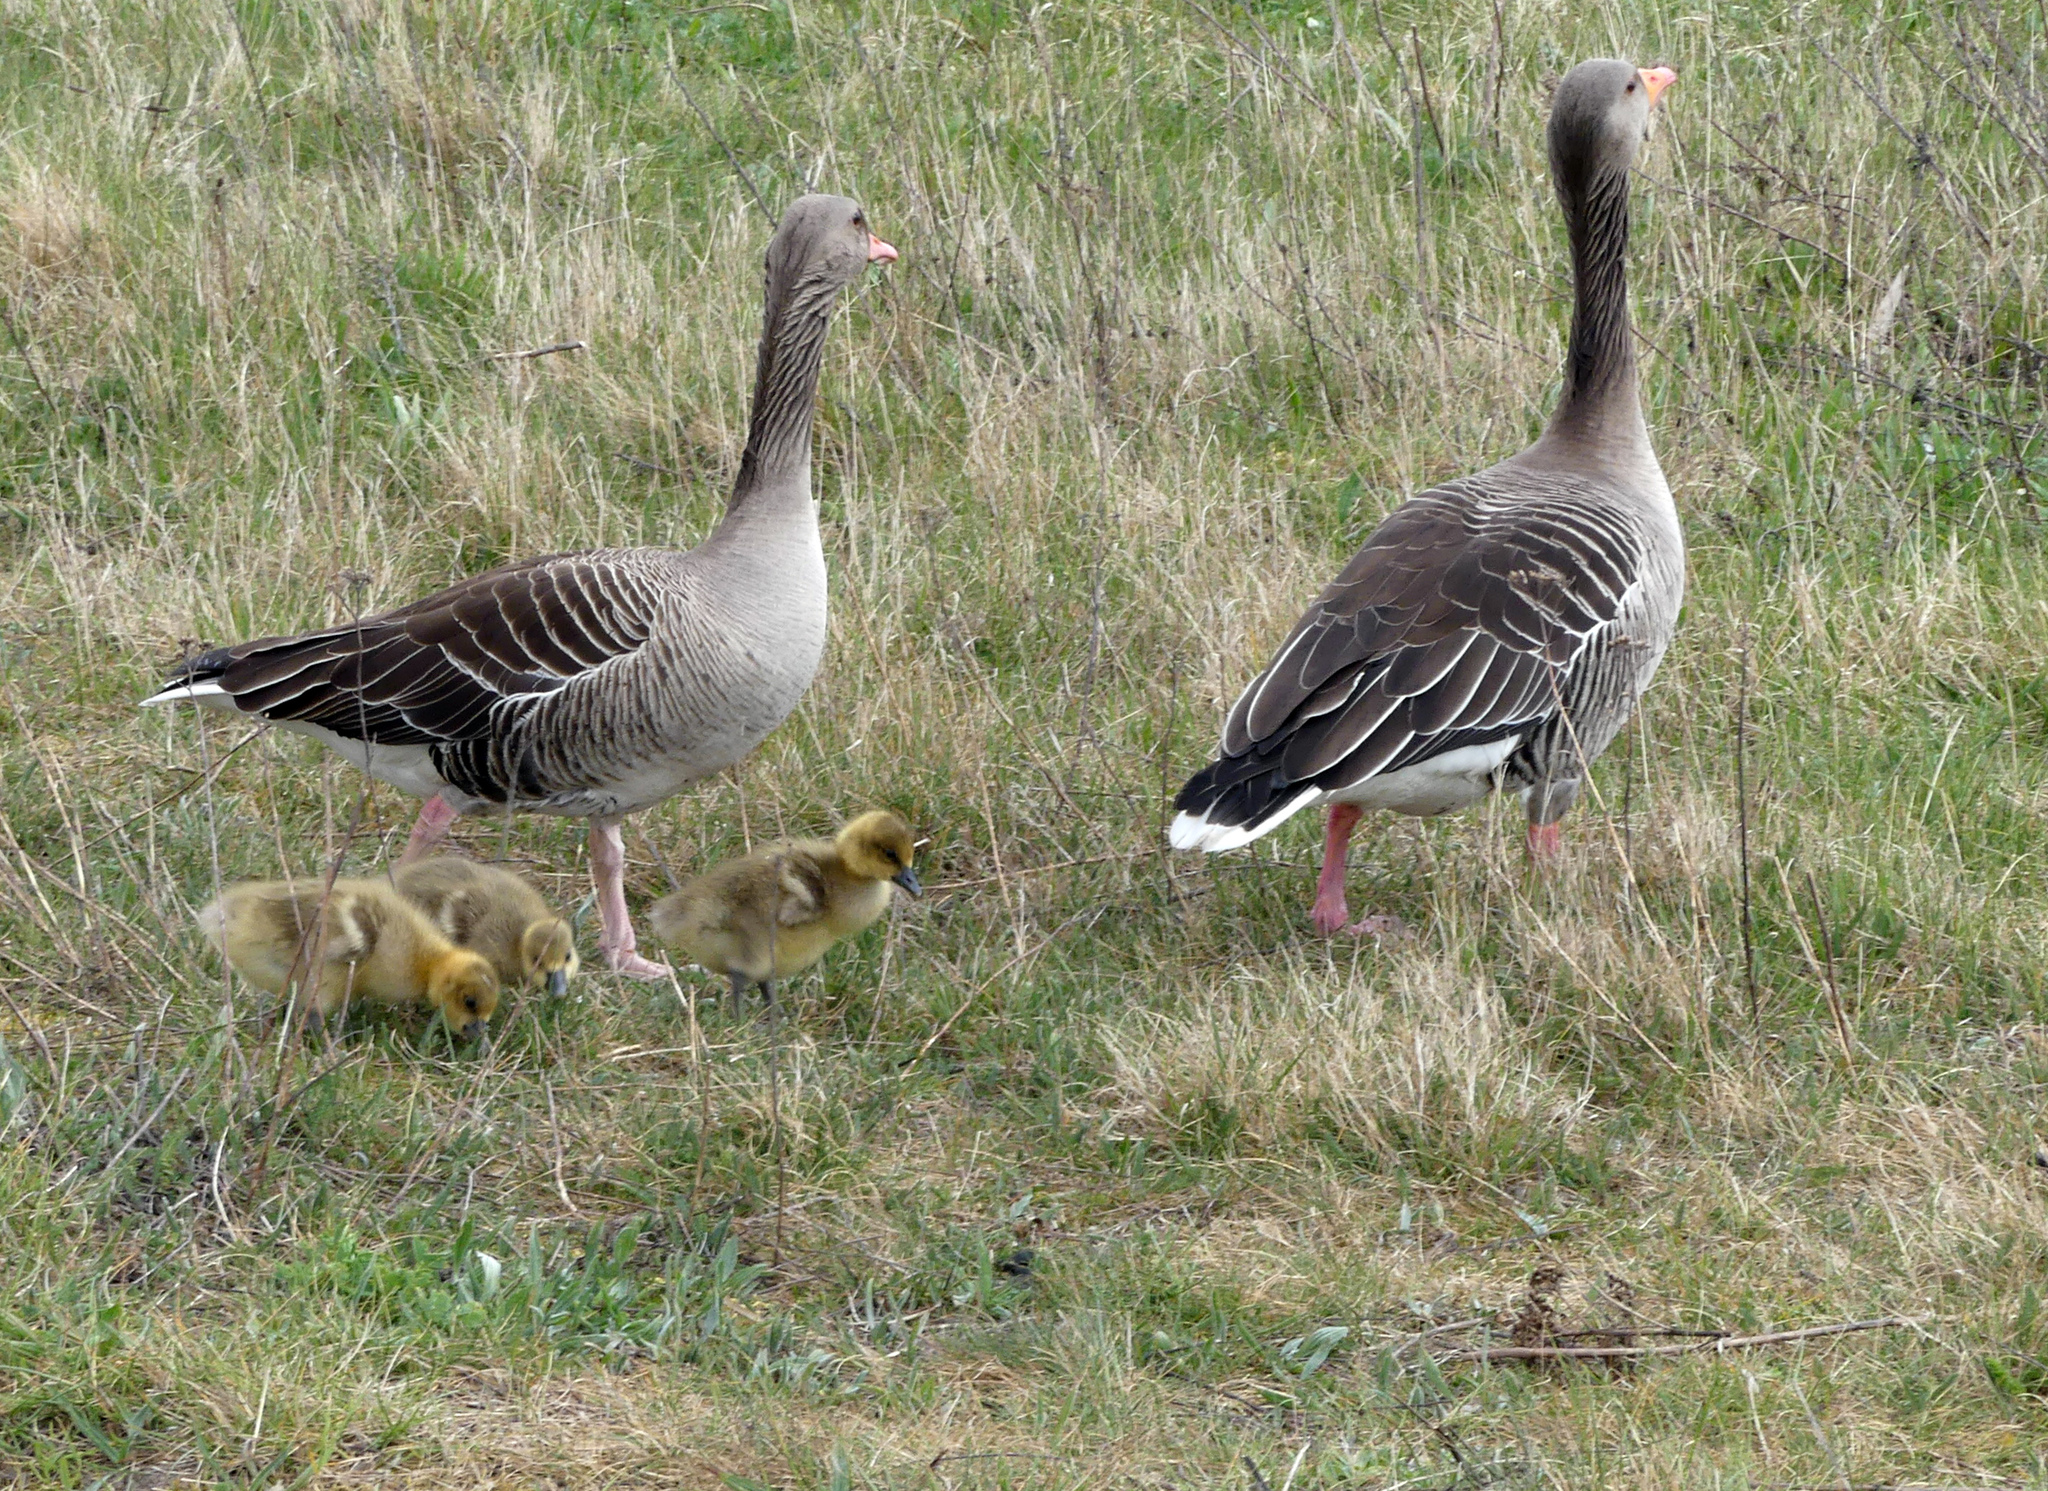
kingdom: Animalia
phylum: Chordata
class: Aves
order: Anseriformes
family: Anatidae
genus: Anser
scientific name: Anser anser
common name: Greylag goose
